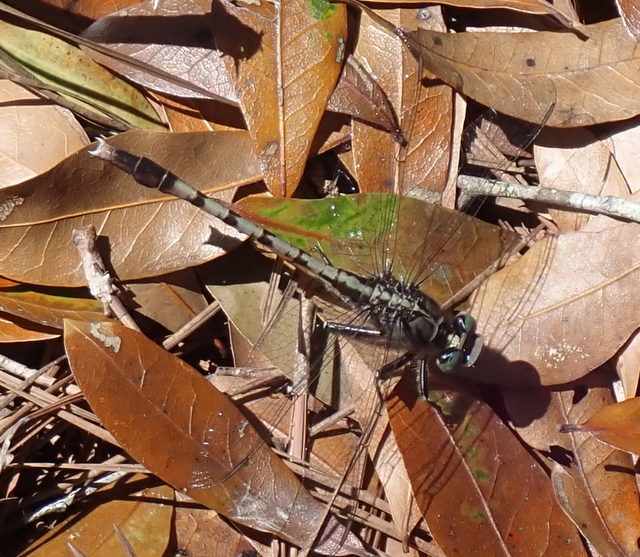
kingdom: Animalia
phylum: Arthropoda
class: Insecta
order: Odonata
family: Gomphidae
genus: Arigomphus
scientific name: Arigomphus pallidus
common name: Gray-green clubtail
